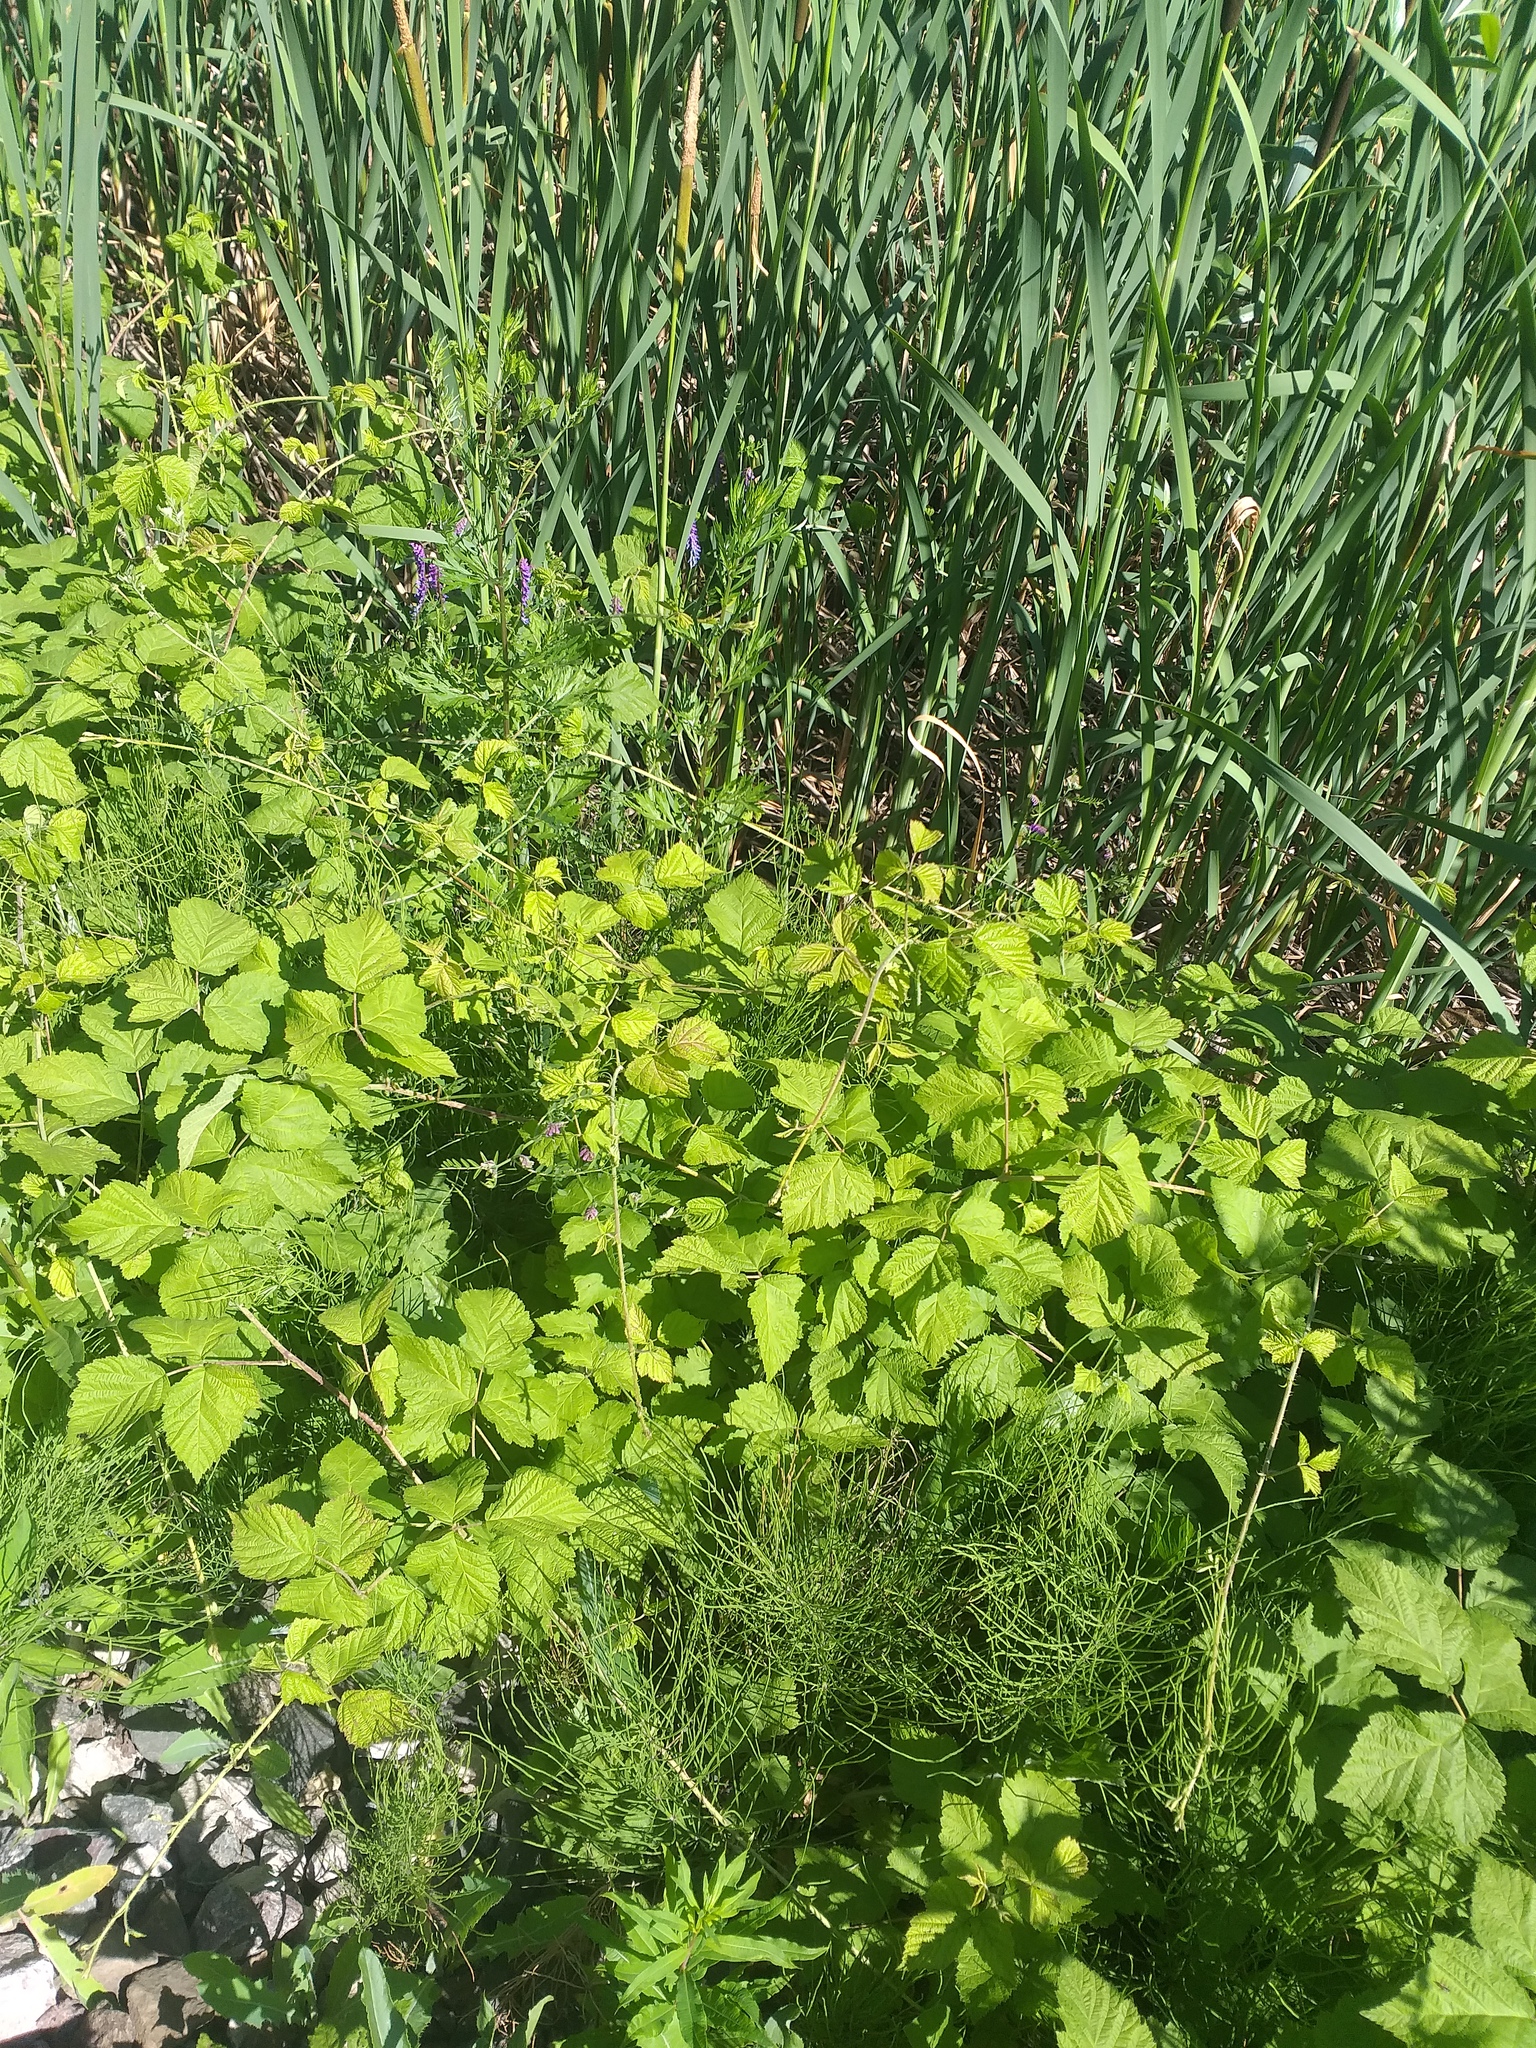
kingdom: Plantae
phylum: Tracheophyta
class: Magnoliopsida
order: Rosales
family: Rosaceae
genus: Rubus
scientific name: Rubus caesius
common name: Dewberry
